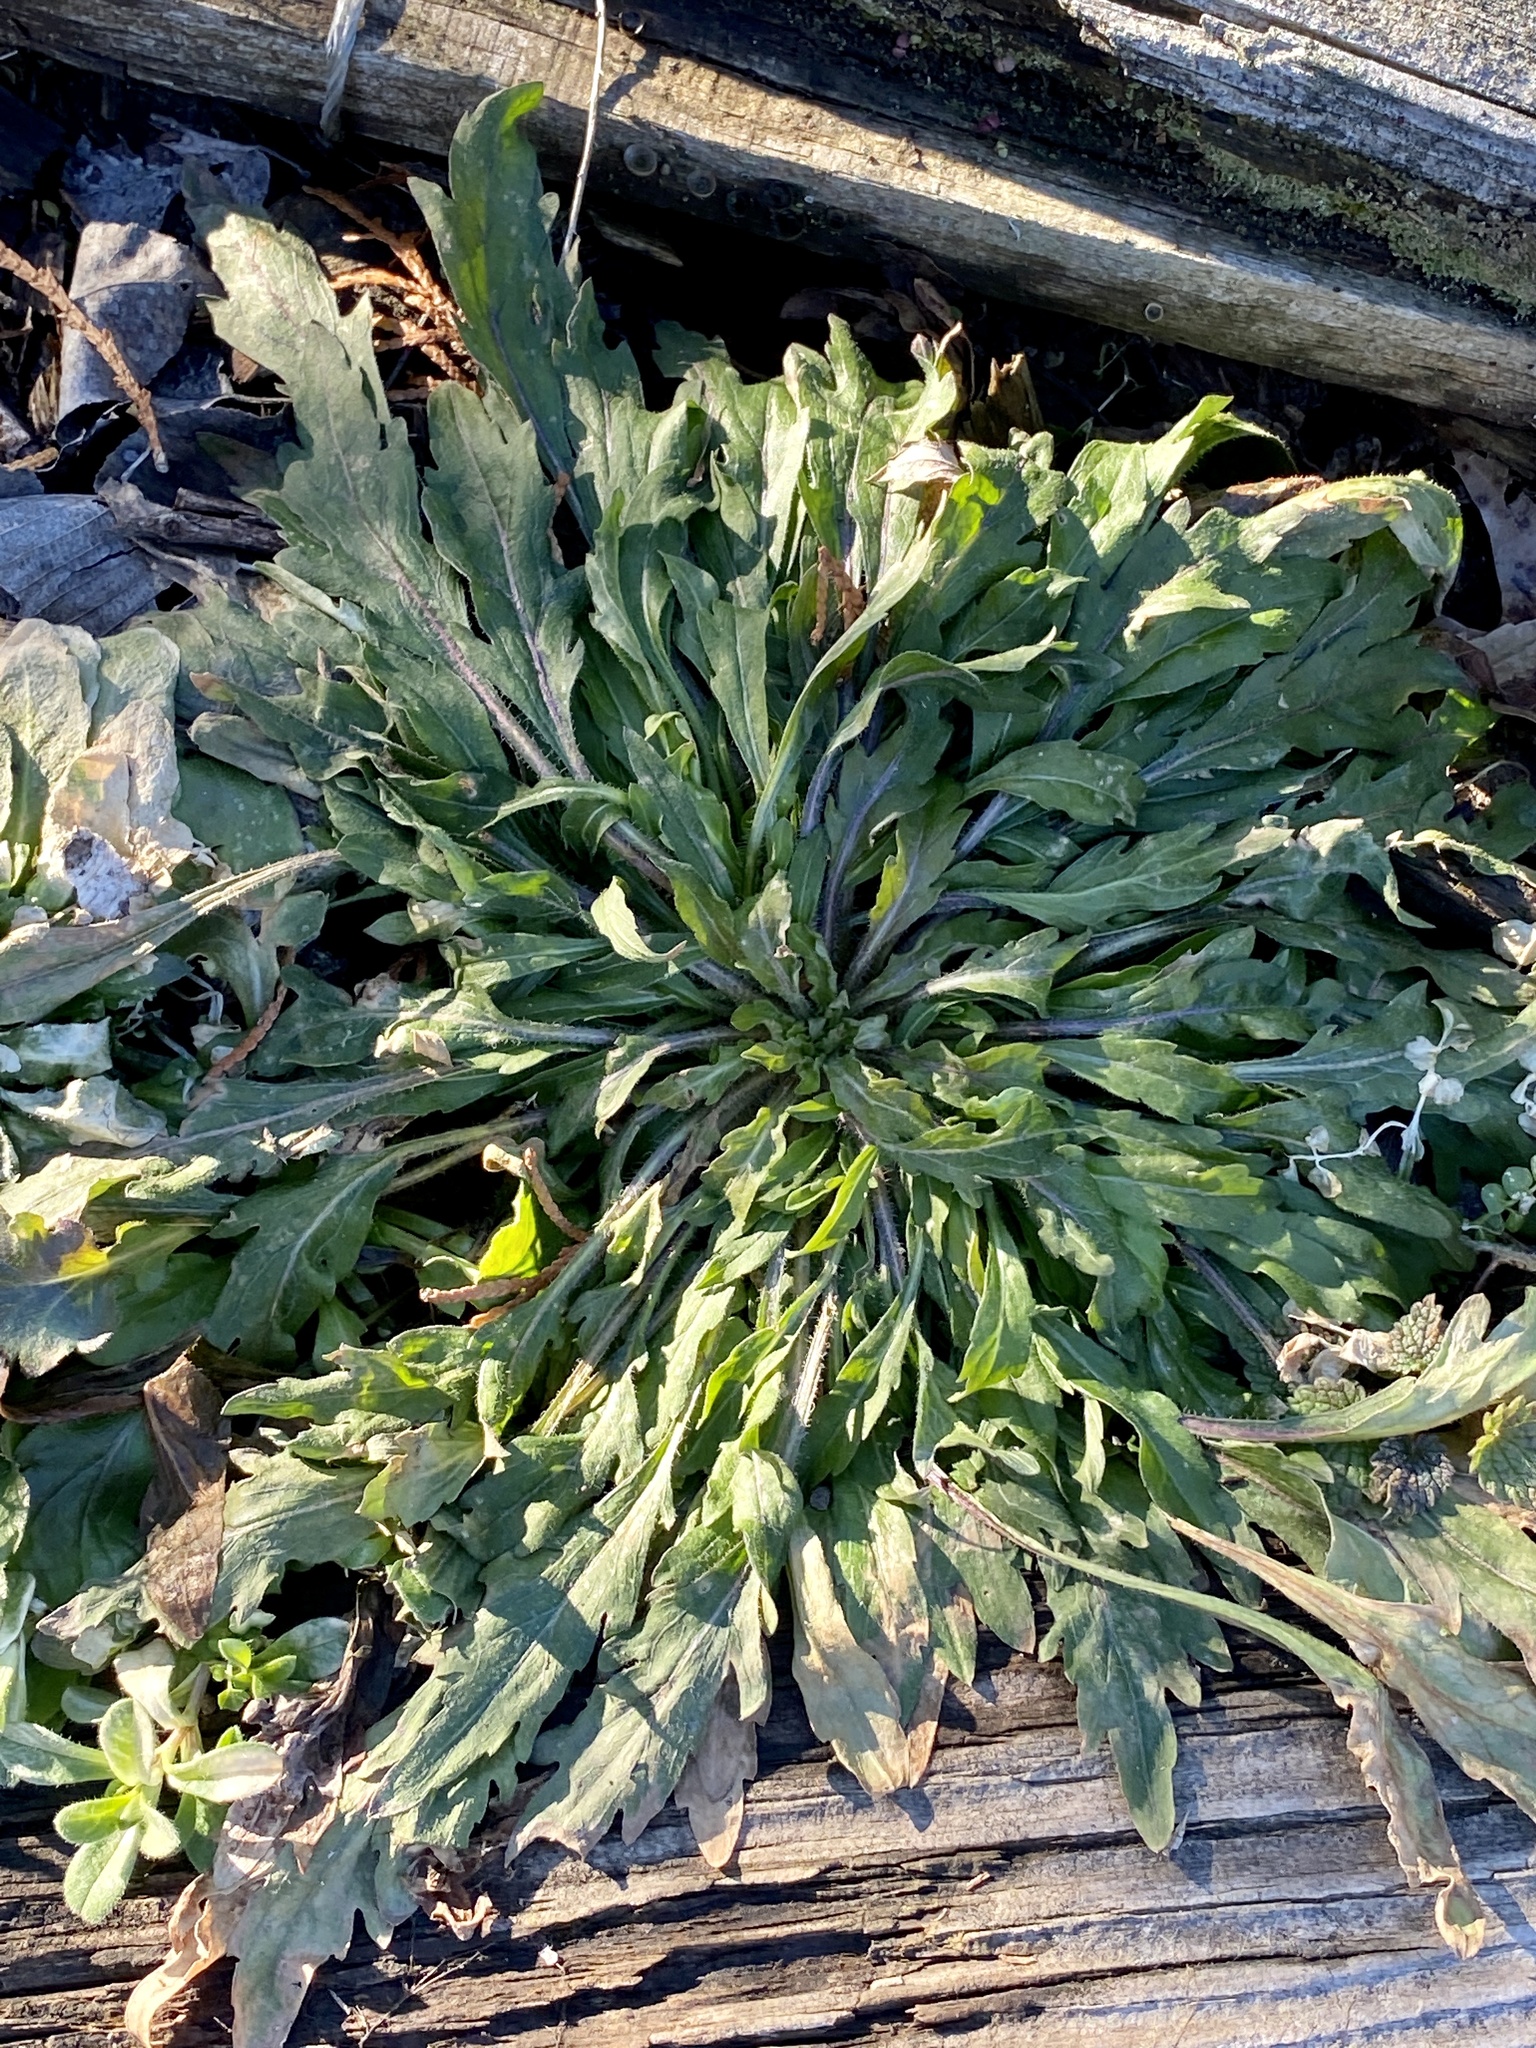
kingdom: Plantae
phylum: Tracheophyta
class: Magnoliopsida
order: Asterales
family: Asteraceae
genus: Erigeron
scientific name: Erigeron canadensis
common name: Canadian fleabane
